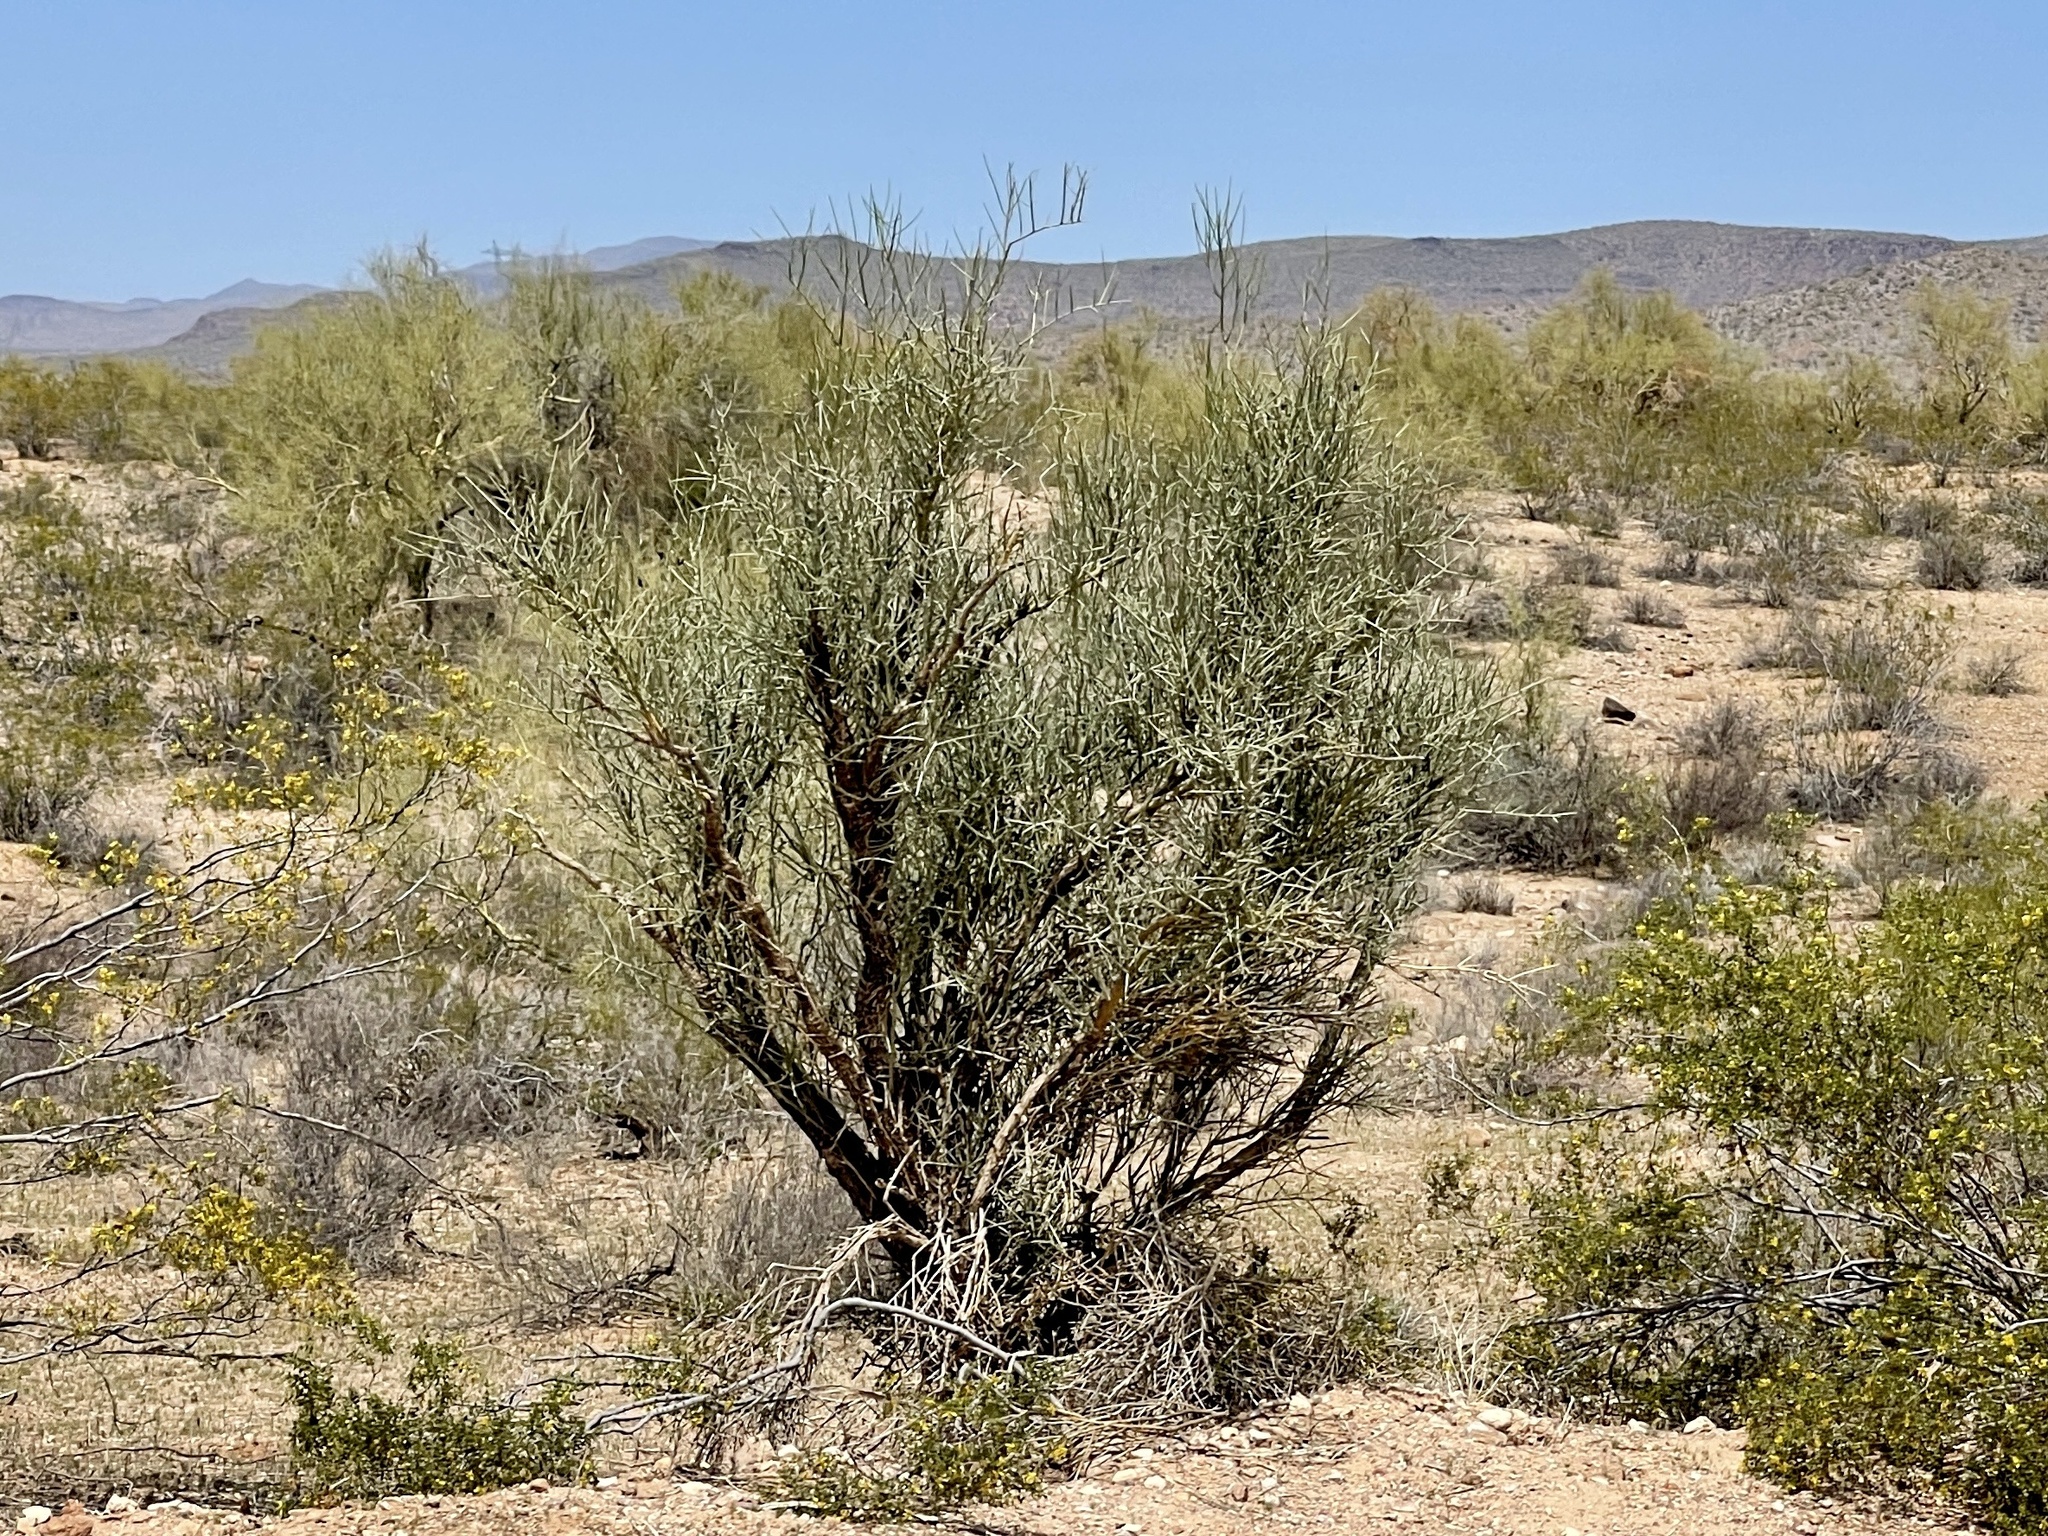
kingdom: Plantae
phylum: Tracheophyta
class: Magnoliopsida
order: Celastrales
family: Celastraceae
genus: Canotia
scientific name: Canotia holacantha
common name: Crucifixion thorns
